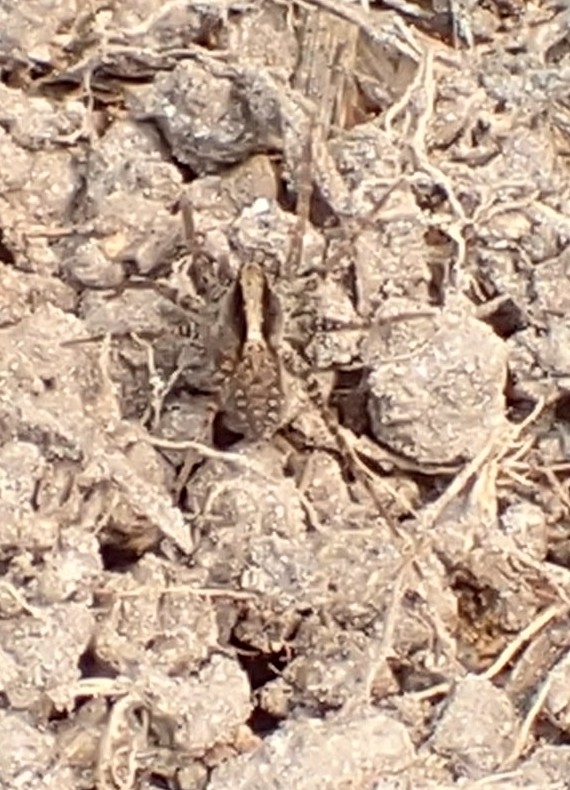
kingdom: Animalia
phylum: Arthropoda
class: Arachnida
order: Araneae
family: Lycosidae
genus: Pardosa
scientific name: Pardosa
